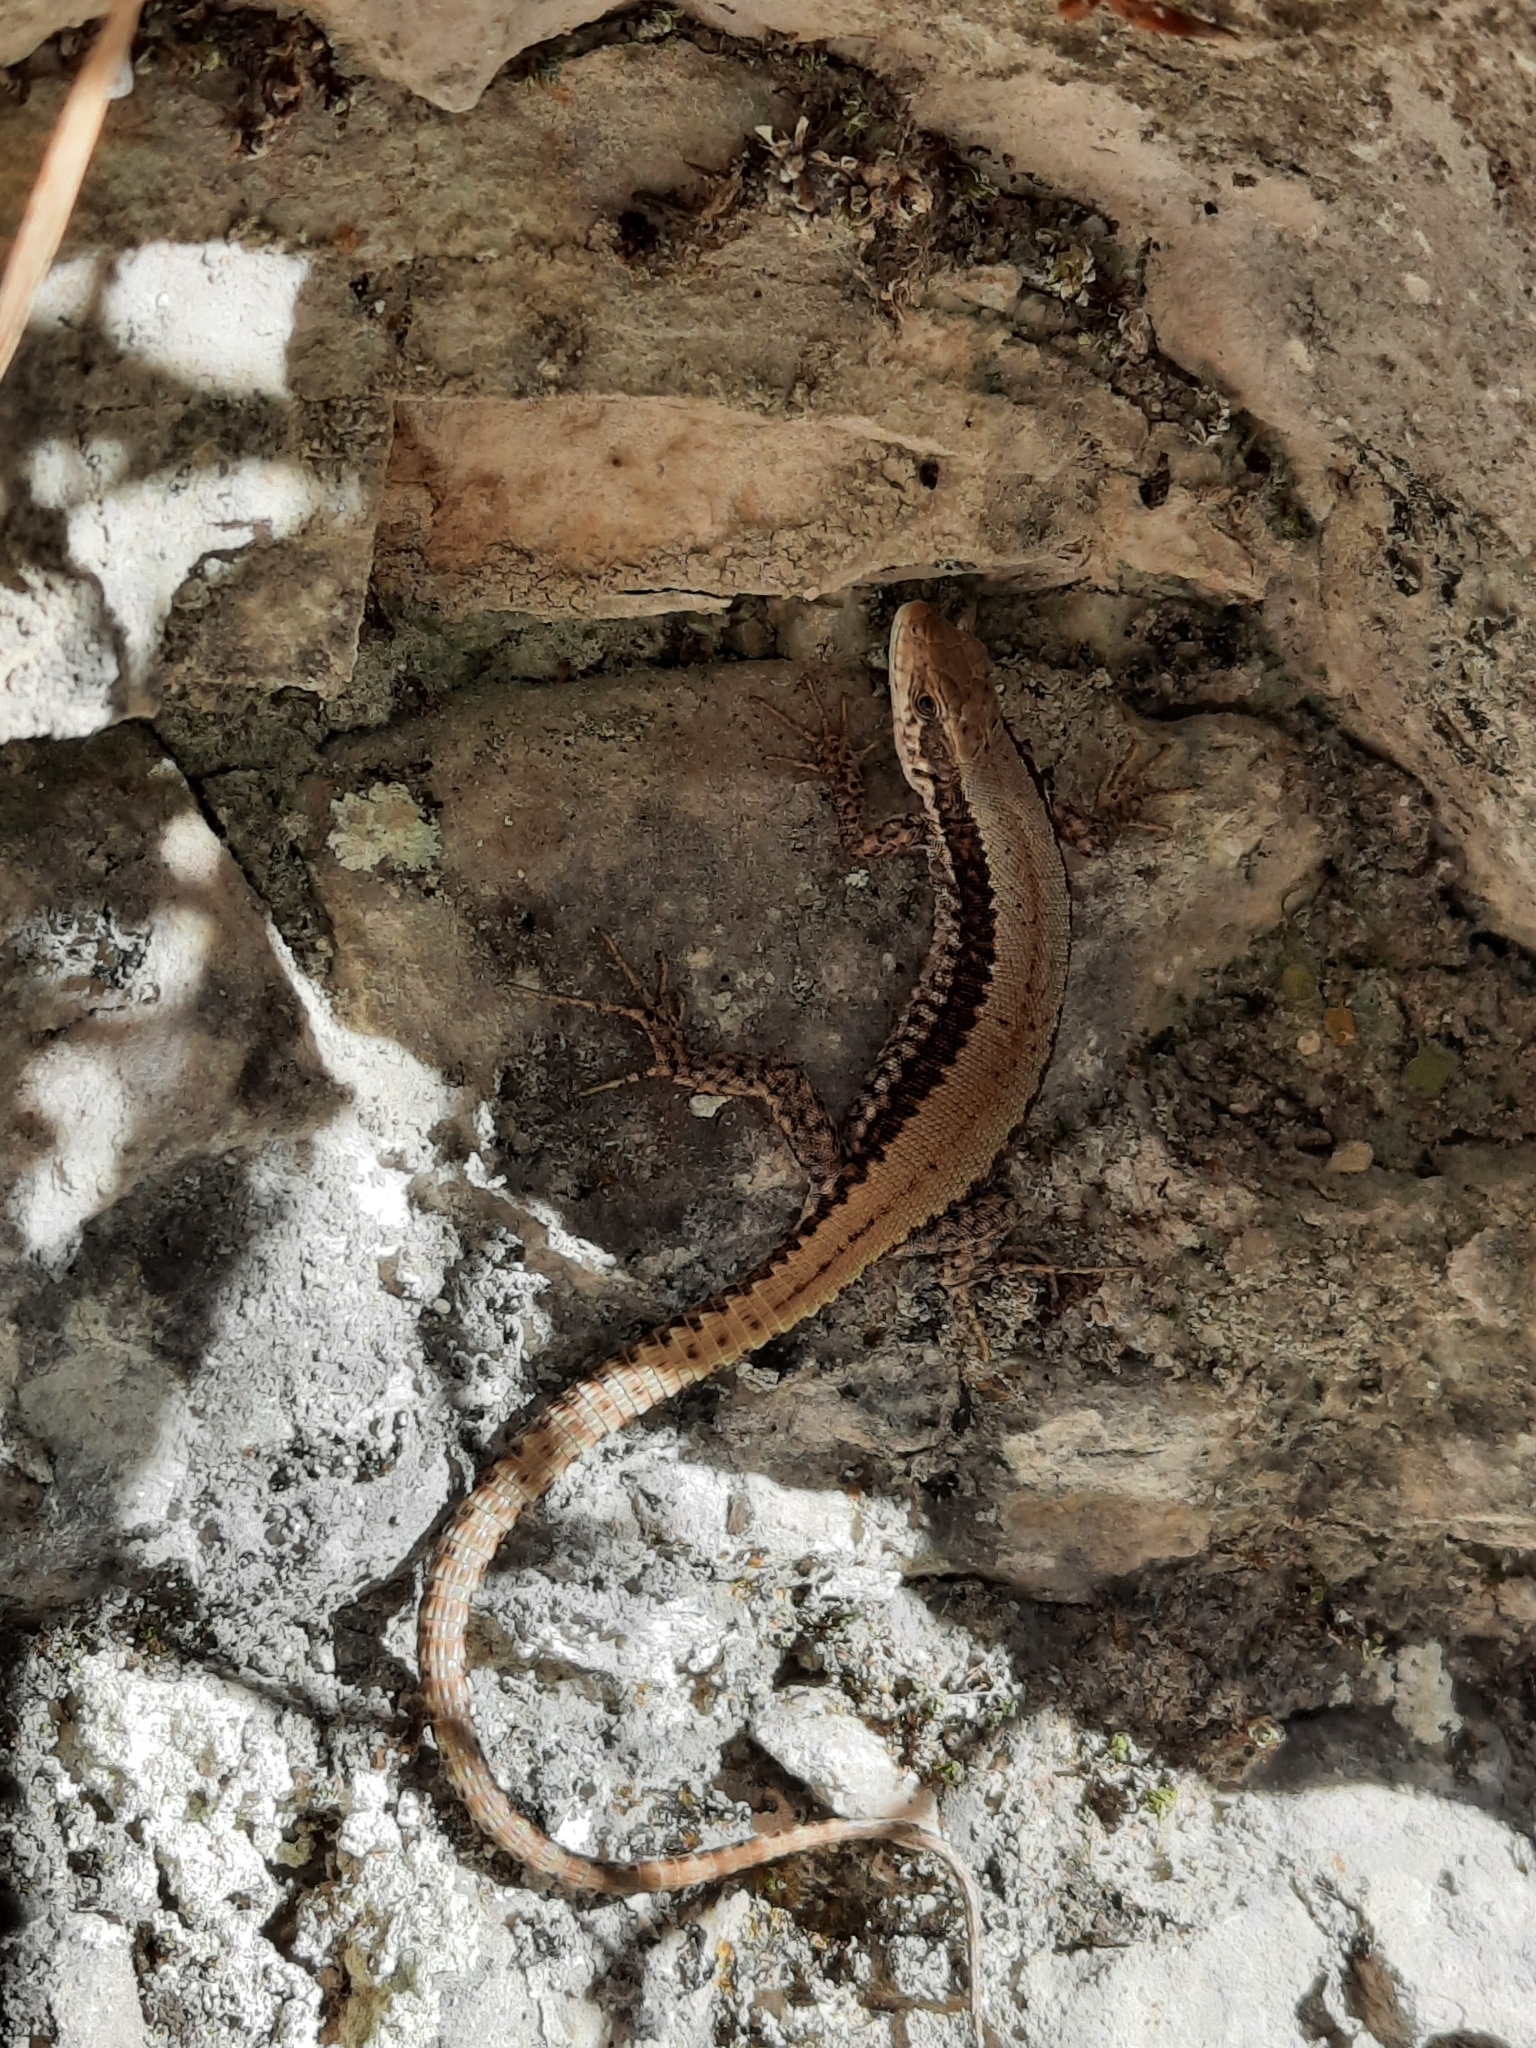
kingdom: Animalia
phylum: Chordata
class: Squamata
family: Lacertidae
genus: Iberolacerta
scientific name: Iberolacerta horvathi
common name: Horvath's rock lizard
